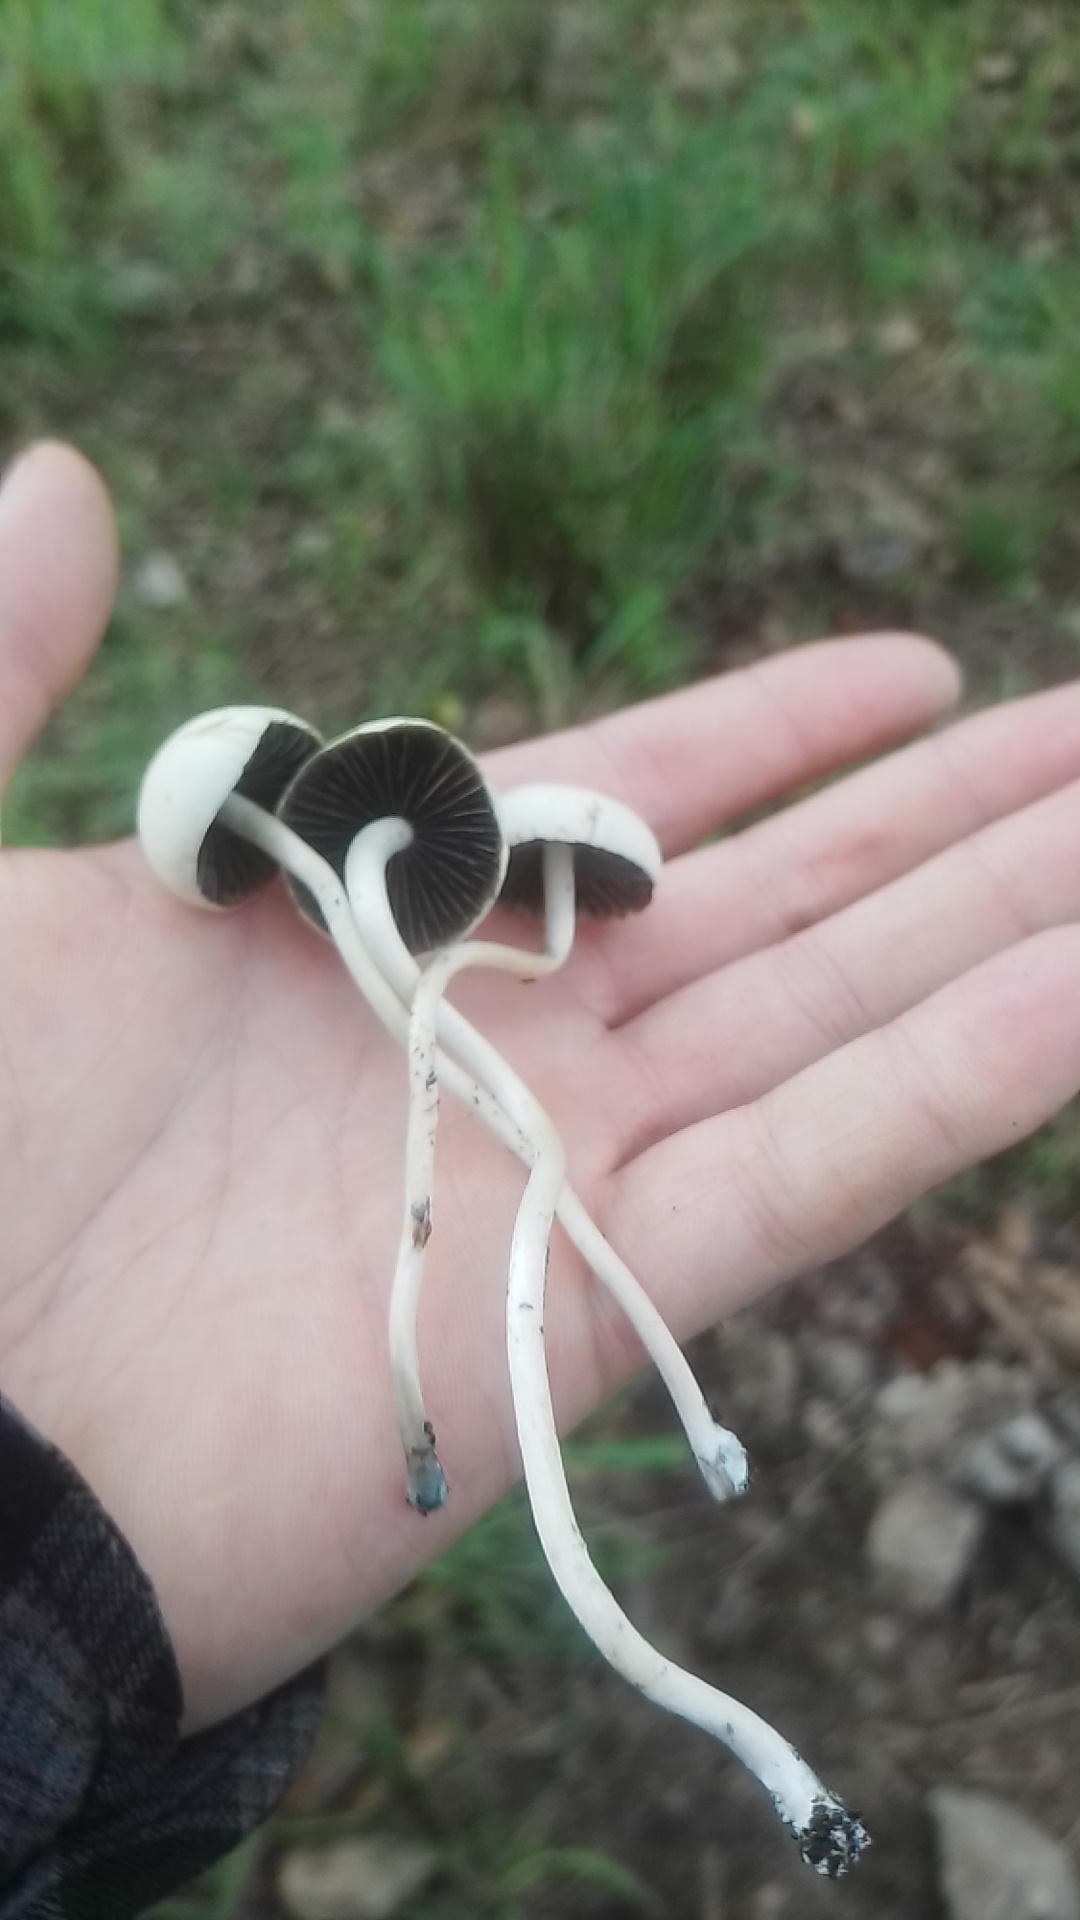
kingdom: Fungi
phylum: Basidiomycota
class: Agaricomycetes
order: Agaricales
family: Bolbitiaceae
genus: Panaeolus
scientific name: Panaeolus cyanescens
